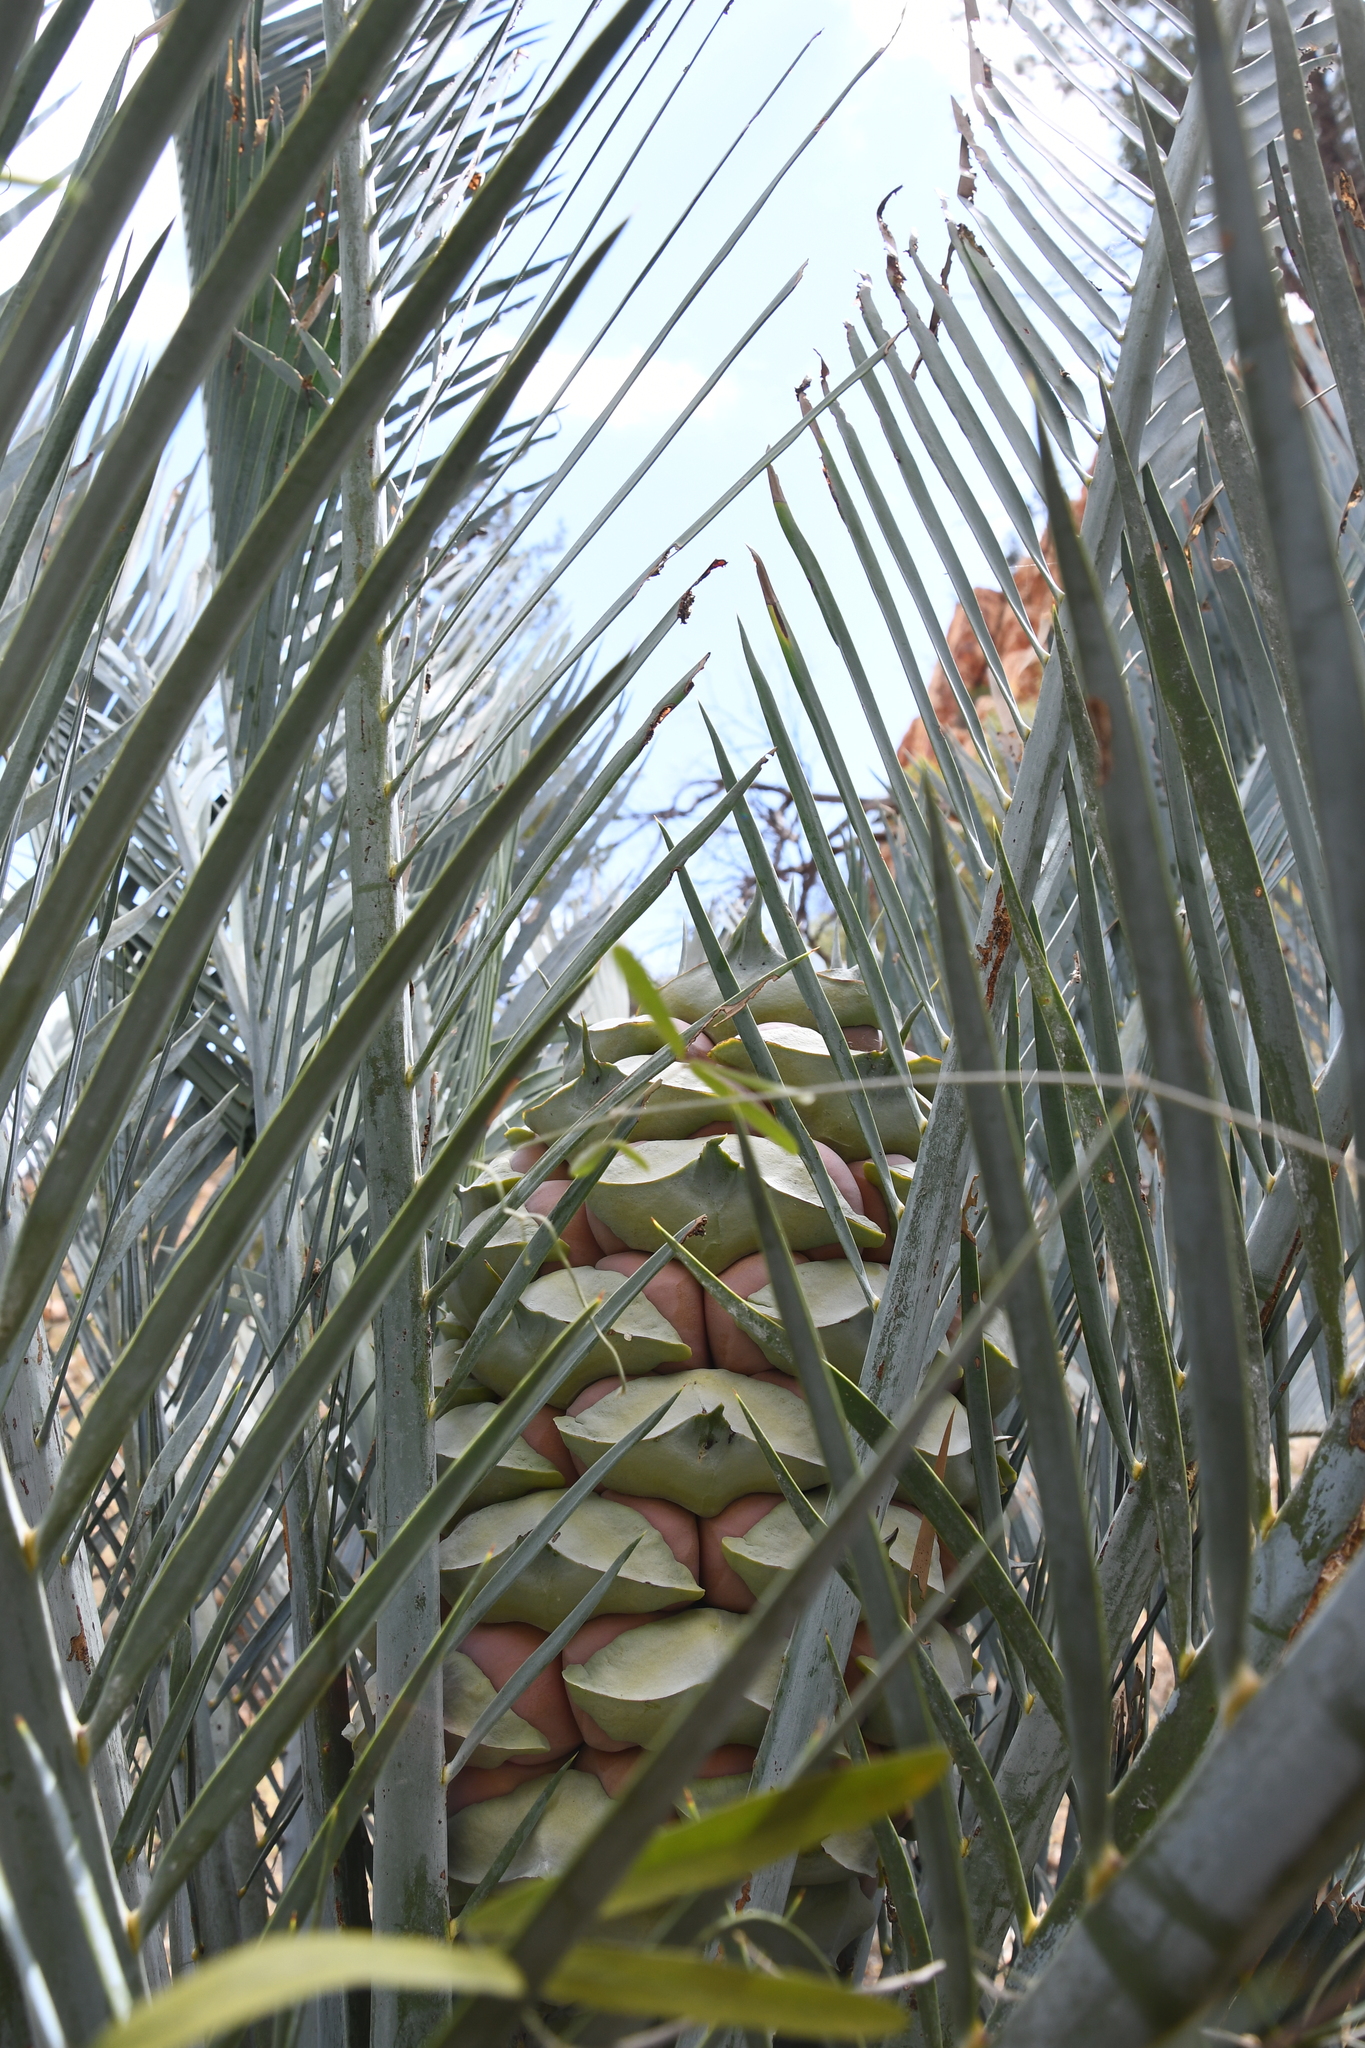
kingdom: Plantae
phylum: Tracheophyta
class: Cycadopsida
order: Cycadales
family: Zamiaceae
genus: Macrozamia
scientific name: Macrozamia macdonnellii
